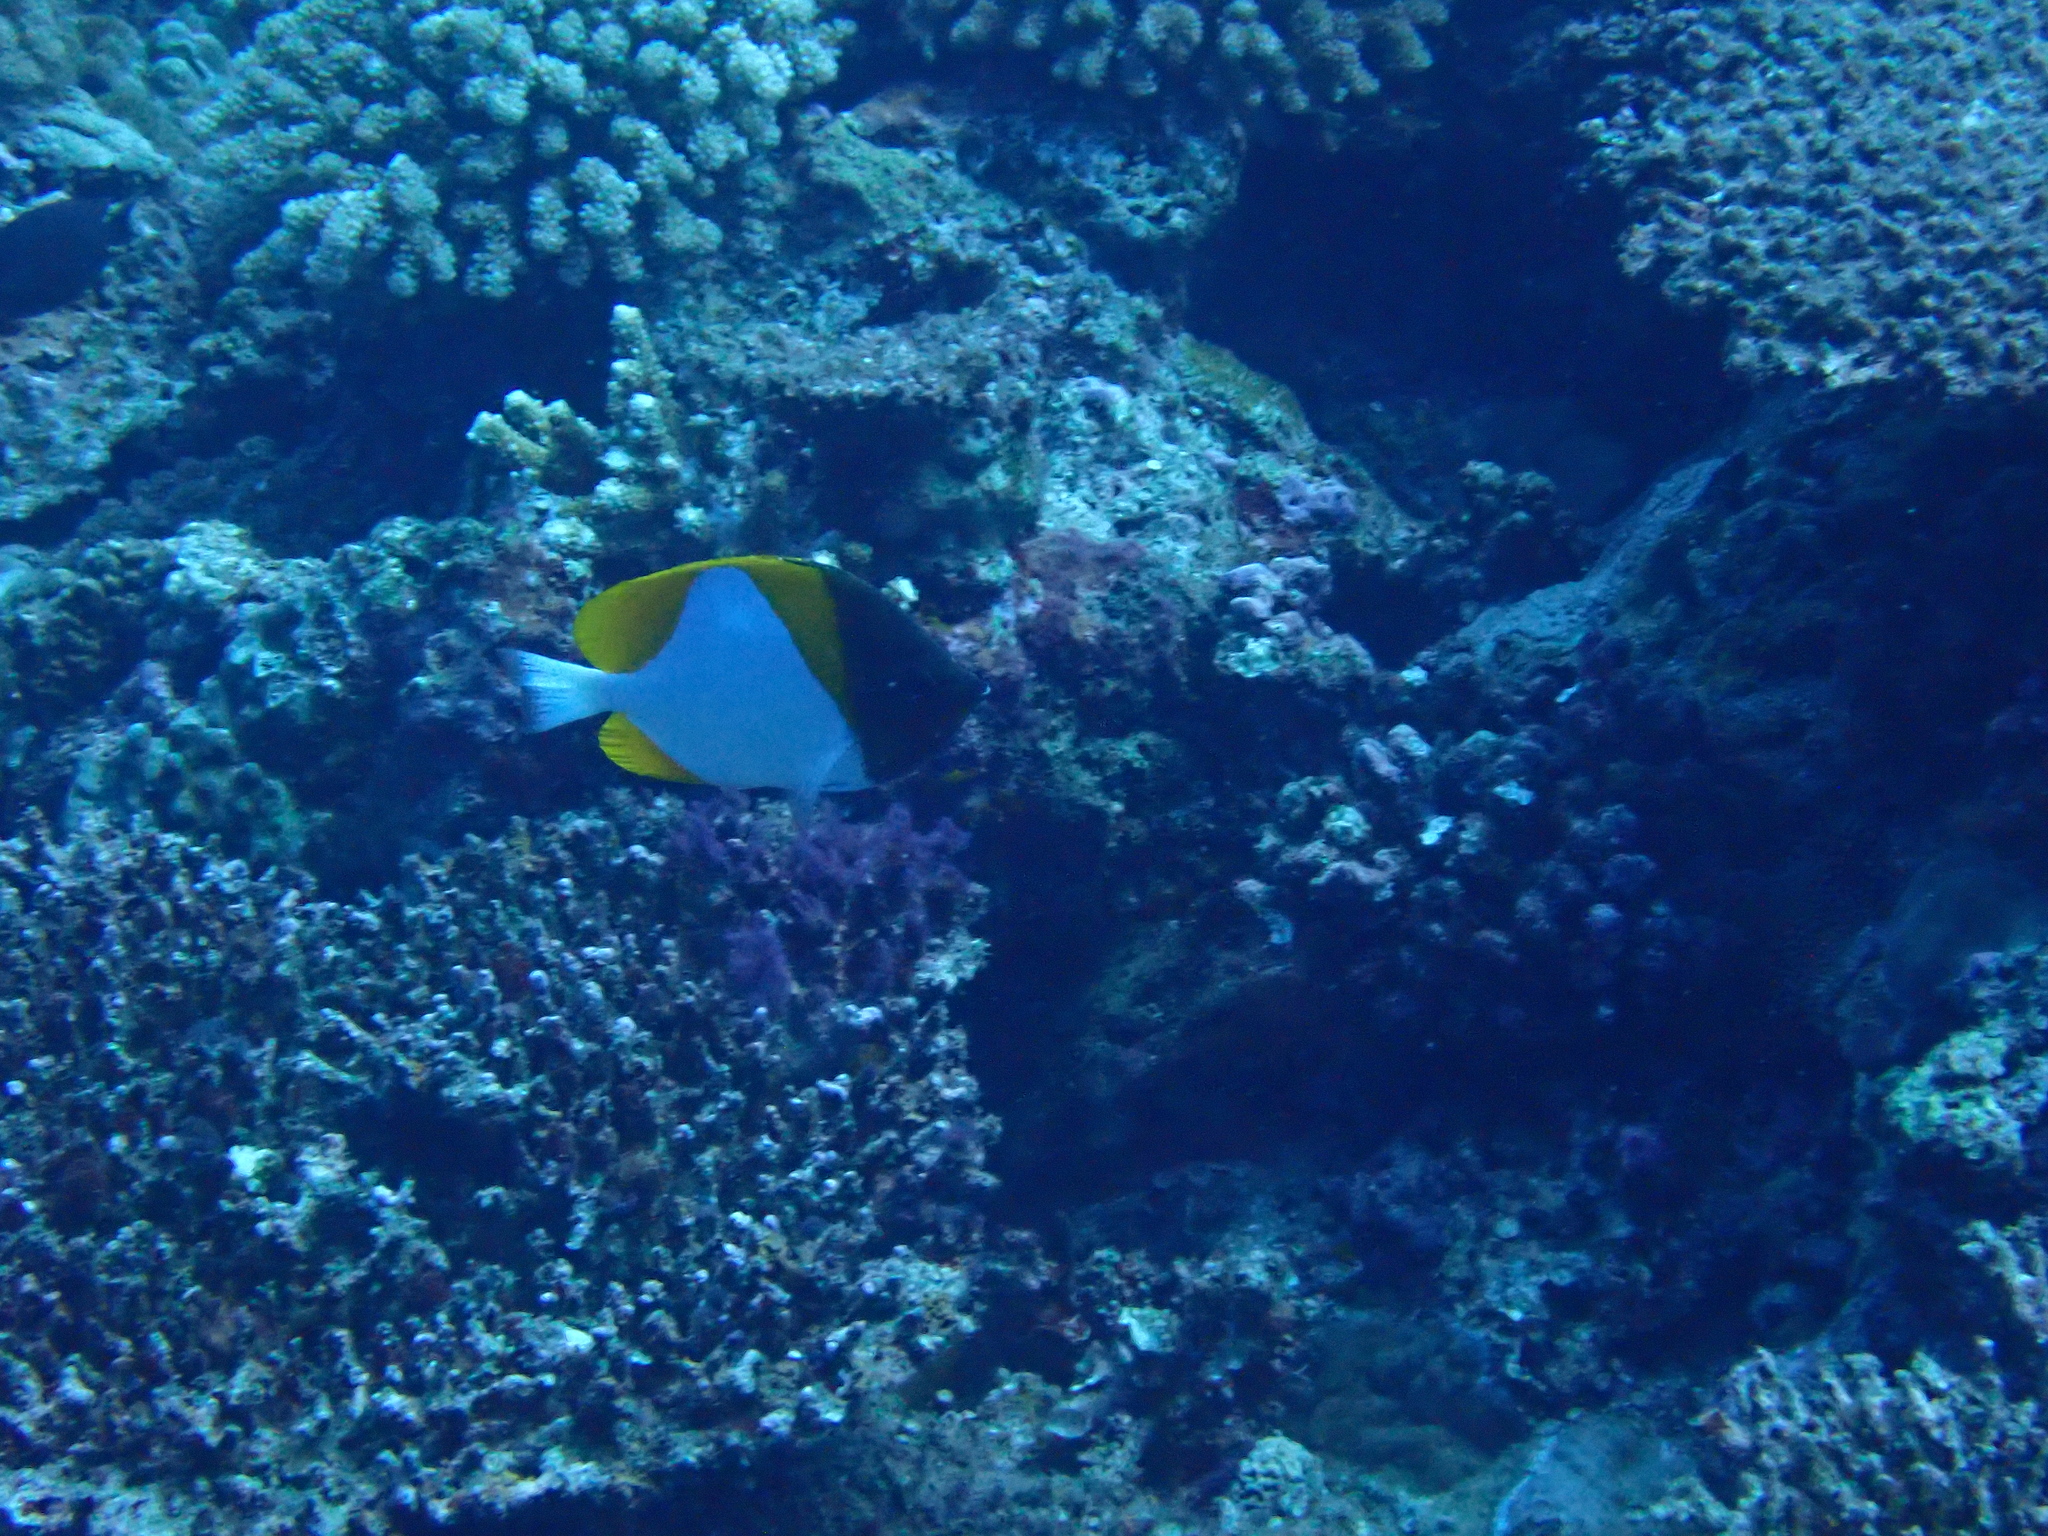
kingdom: Animalia
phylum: Chordata
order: Perciformes
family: Chaetodontidae
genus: Hemitaurichthys
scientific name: Hemitaurichthys polylepis
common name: Brushytoothed butterflyfish
